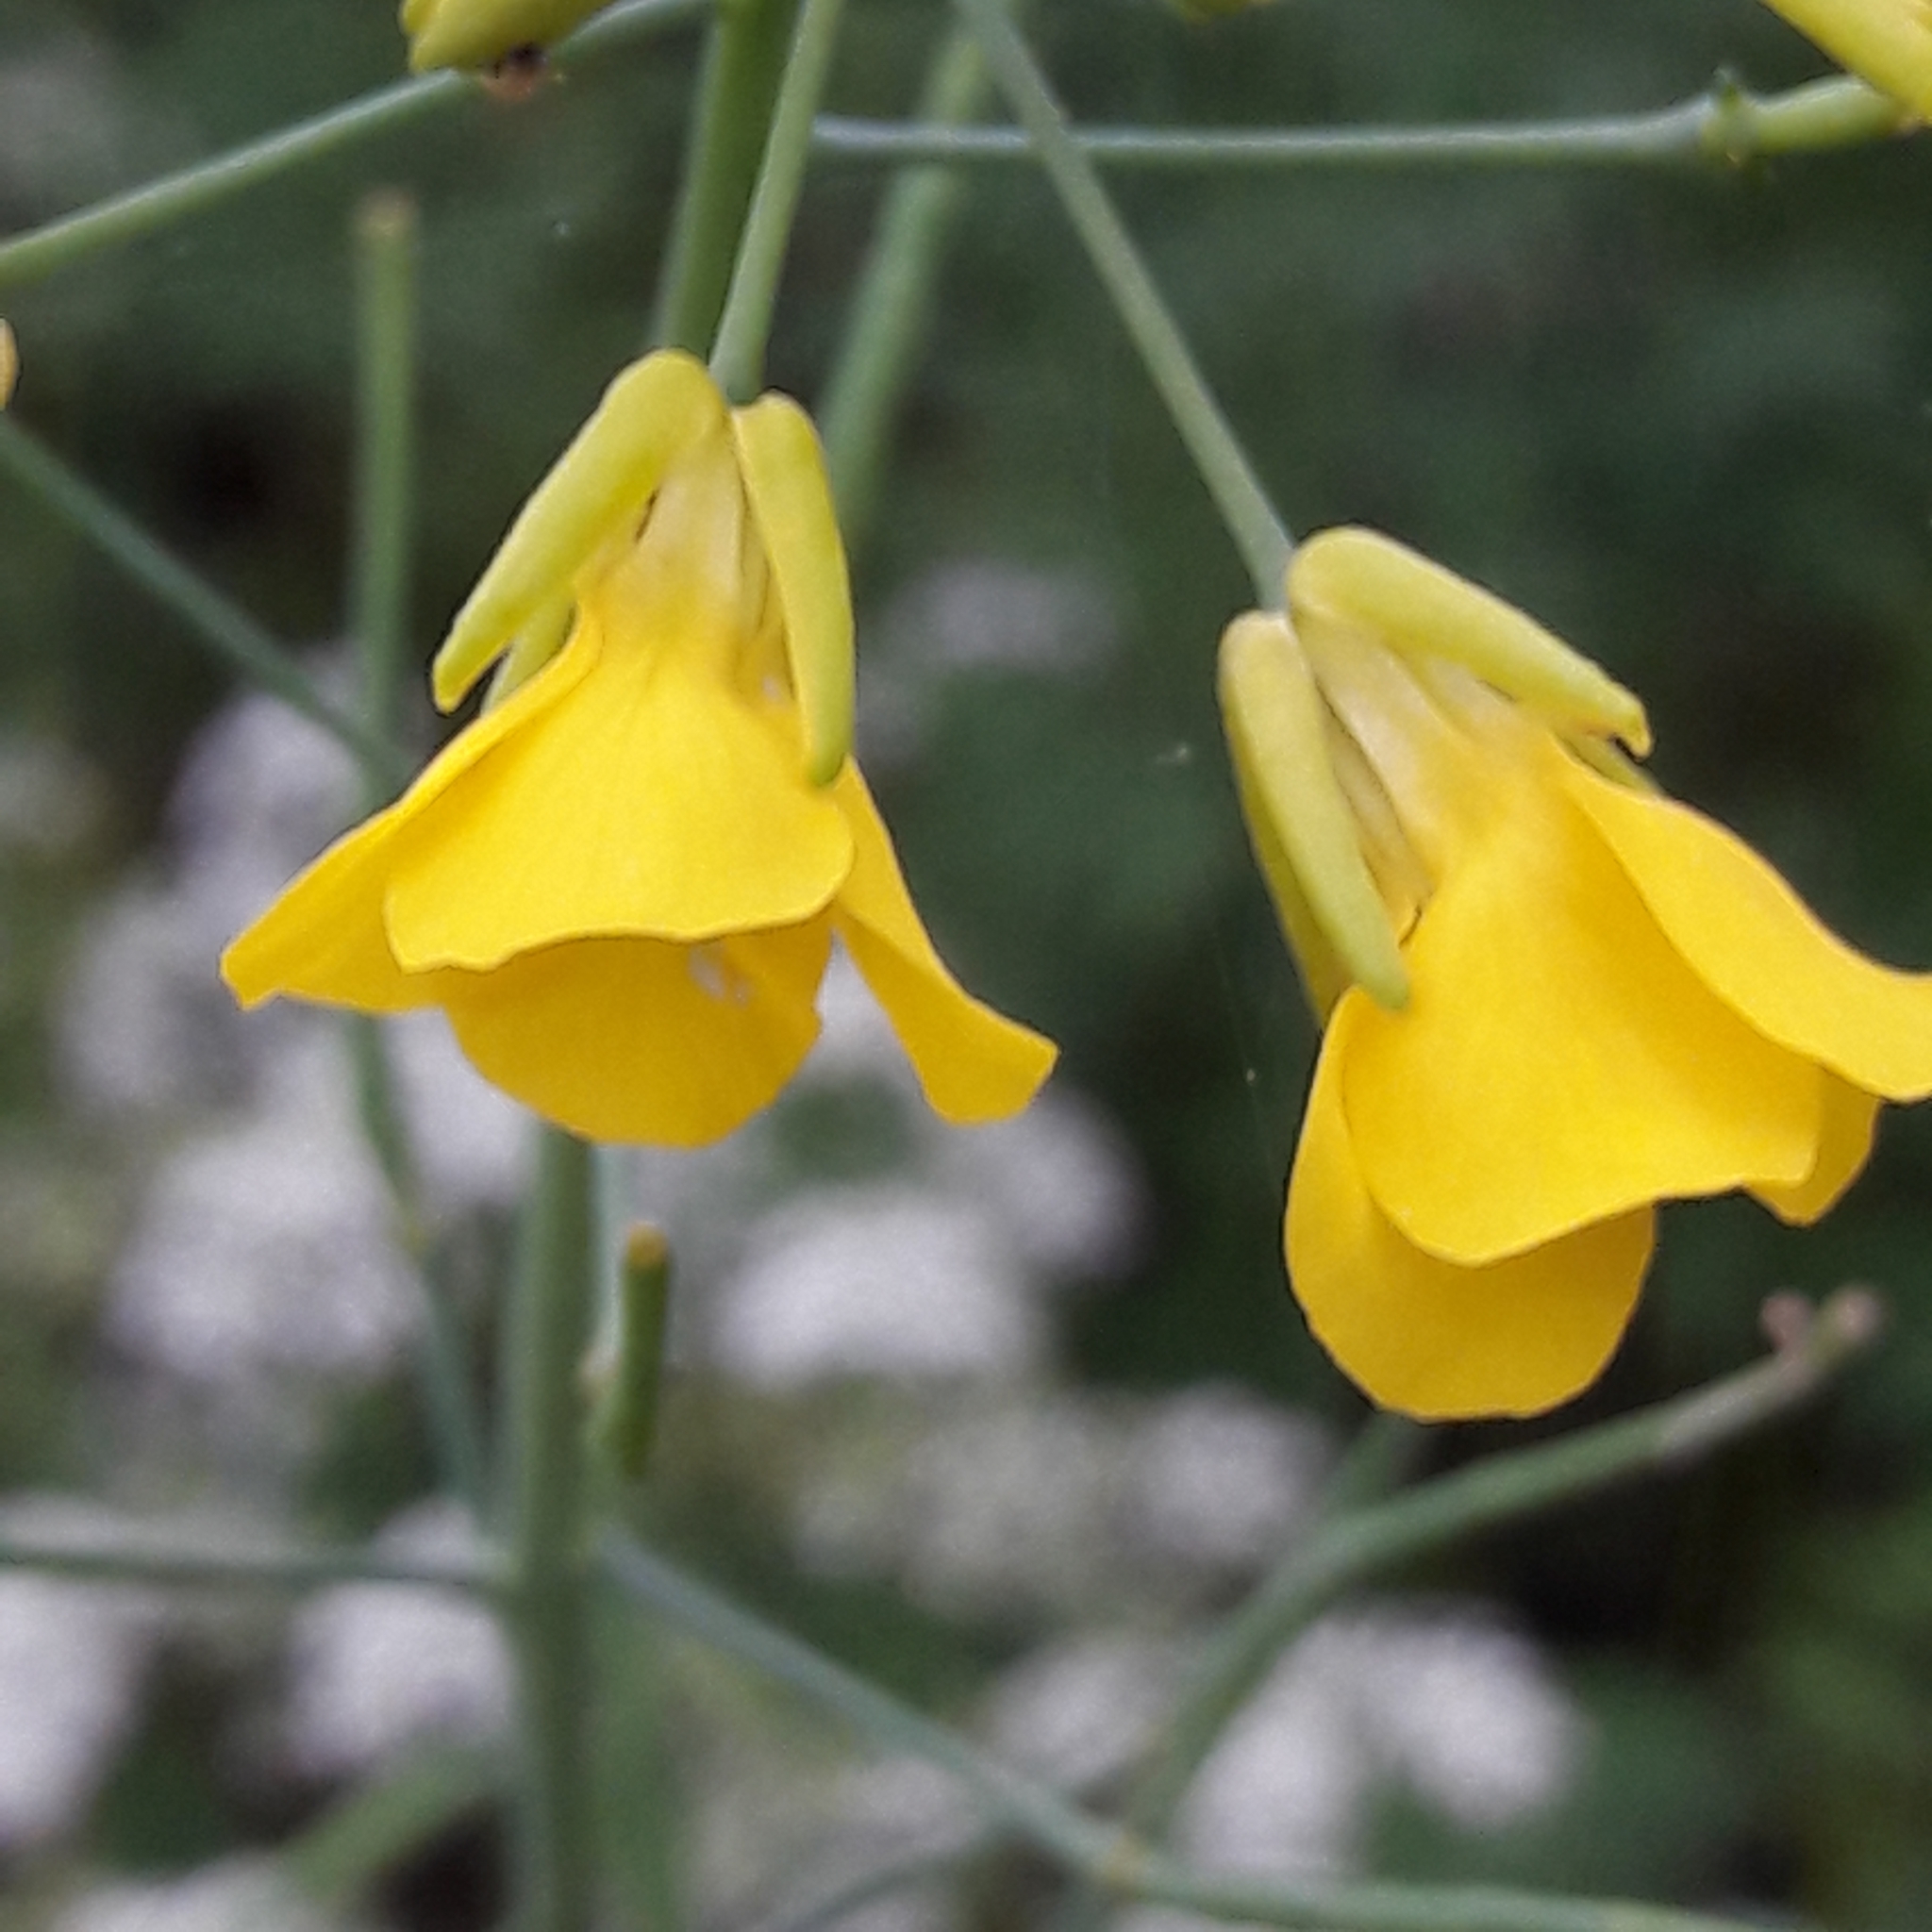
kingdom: Plantae
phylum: Tracheophyta
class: Magnoliopsida
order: Brassicales
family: Brassicaceae
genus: Brassica
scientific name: Brassica rapa
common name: Field mustard
